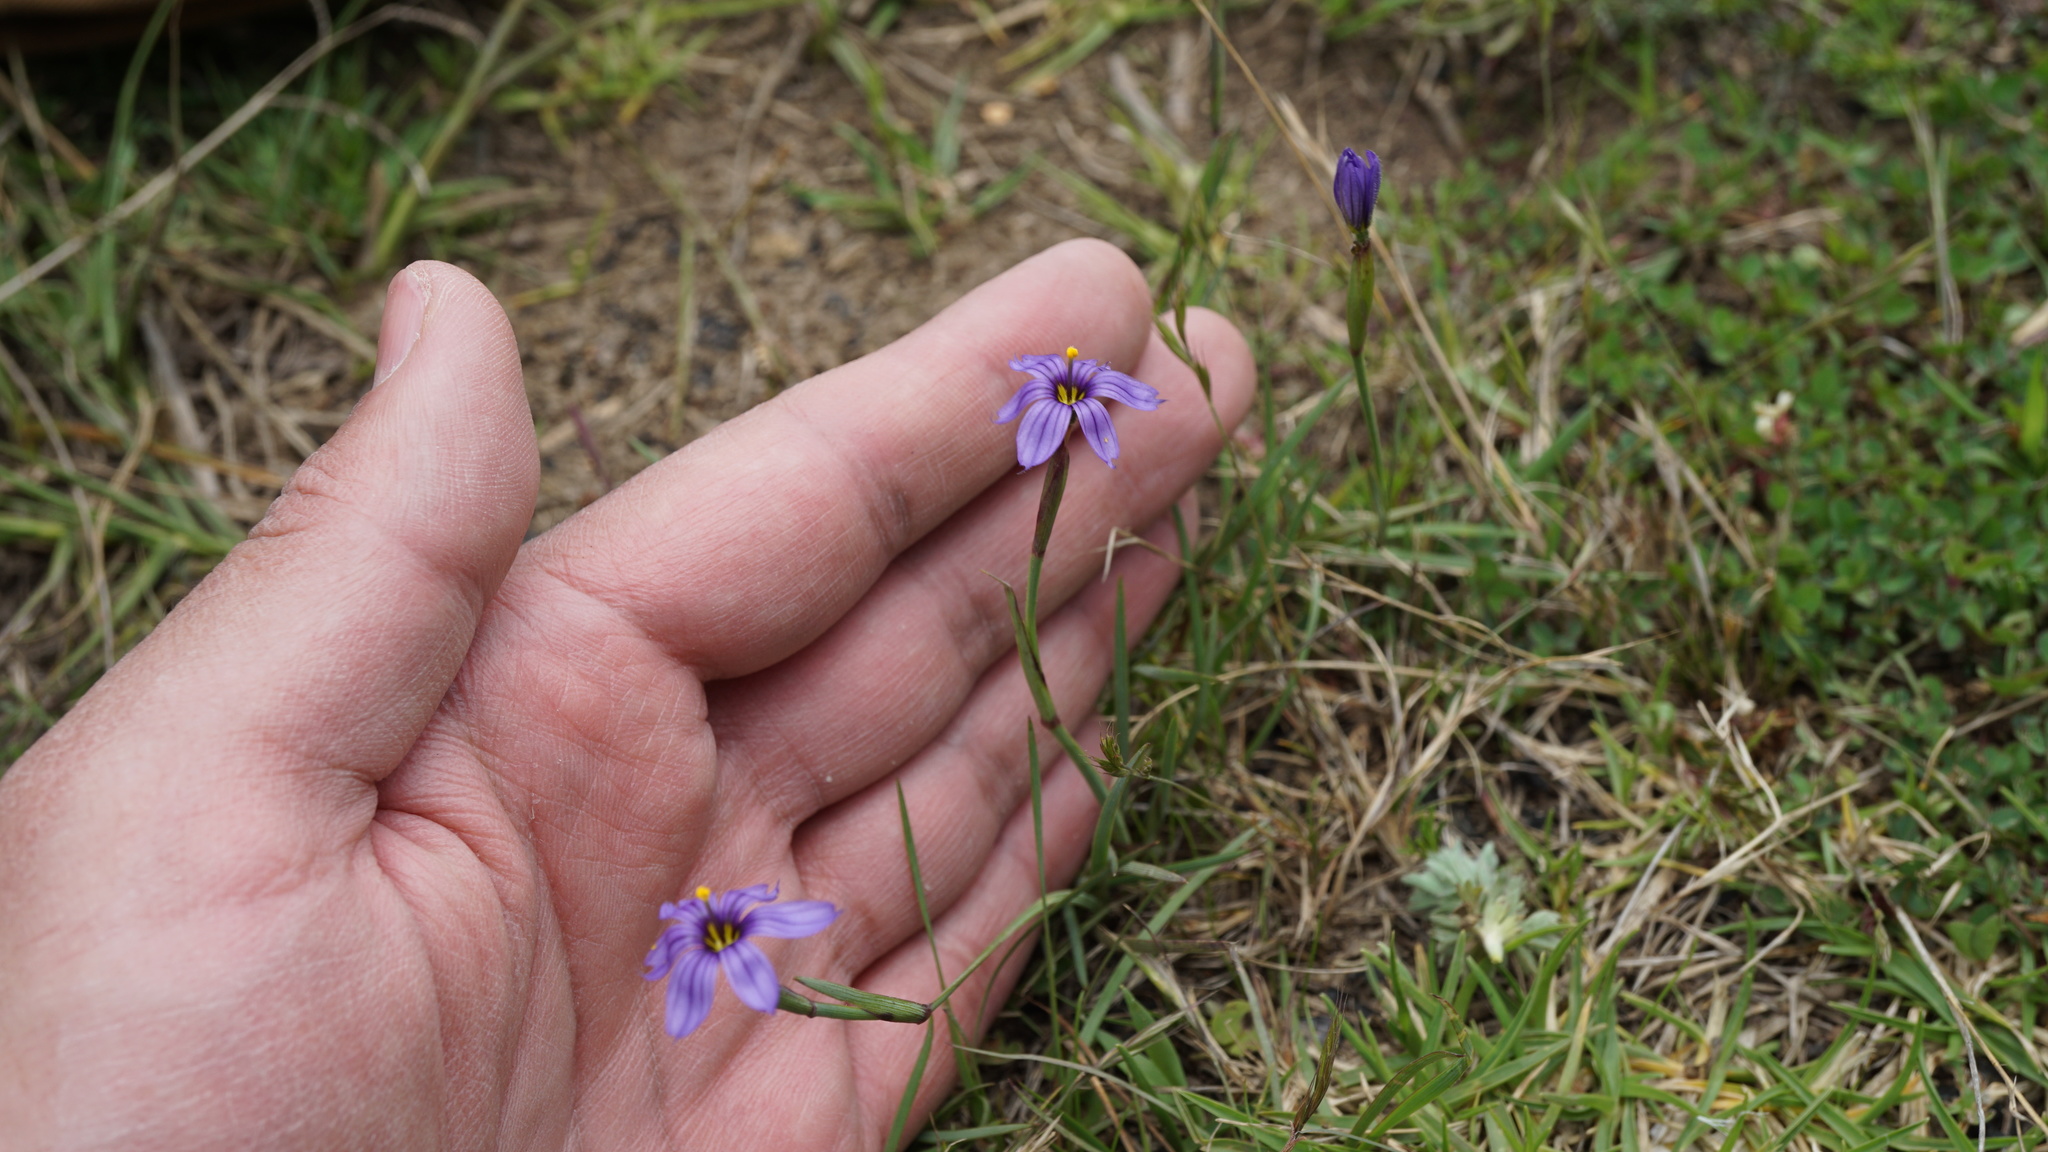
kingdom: Plantae
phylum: Tracheophyta
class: Liliopsida
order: Asparagales
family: Iridaceae
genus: Sisyrinchium
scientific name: Sisyrinchium chilense
